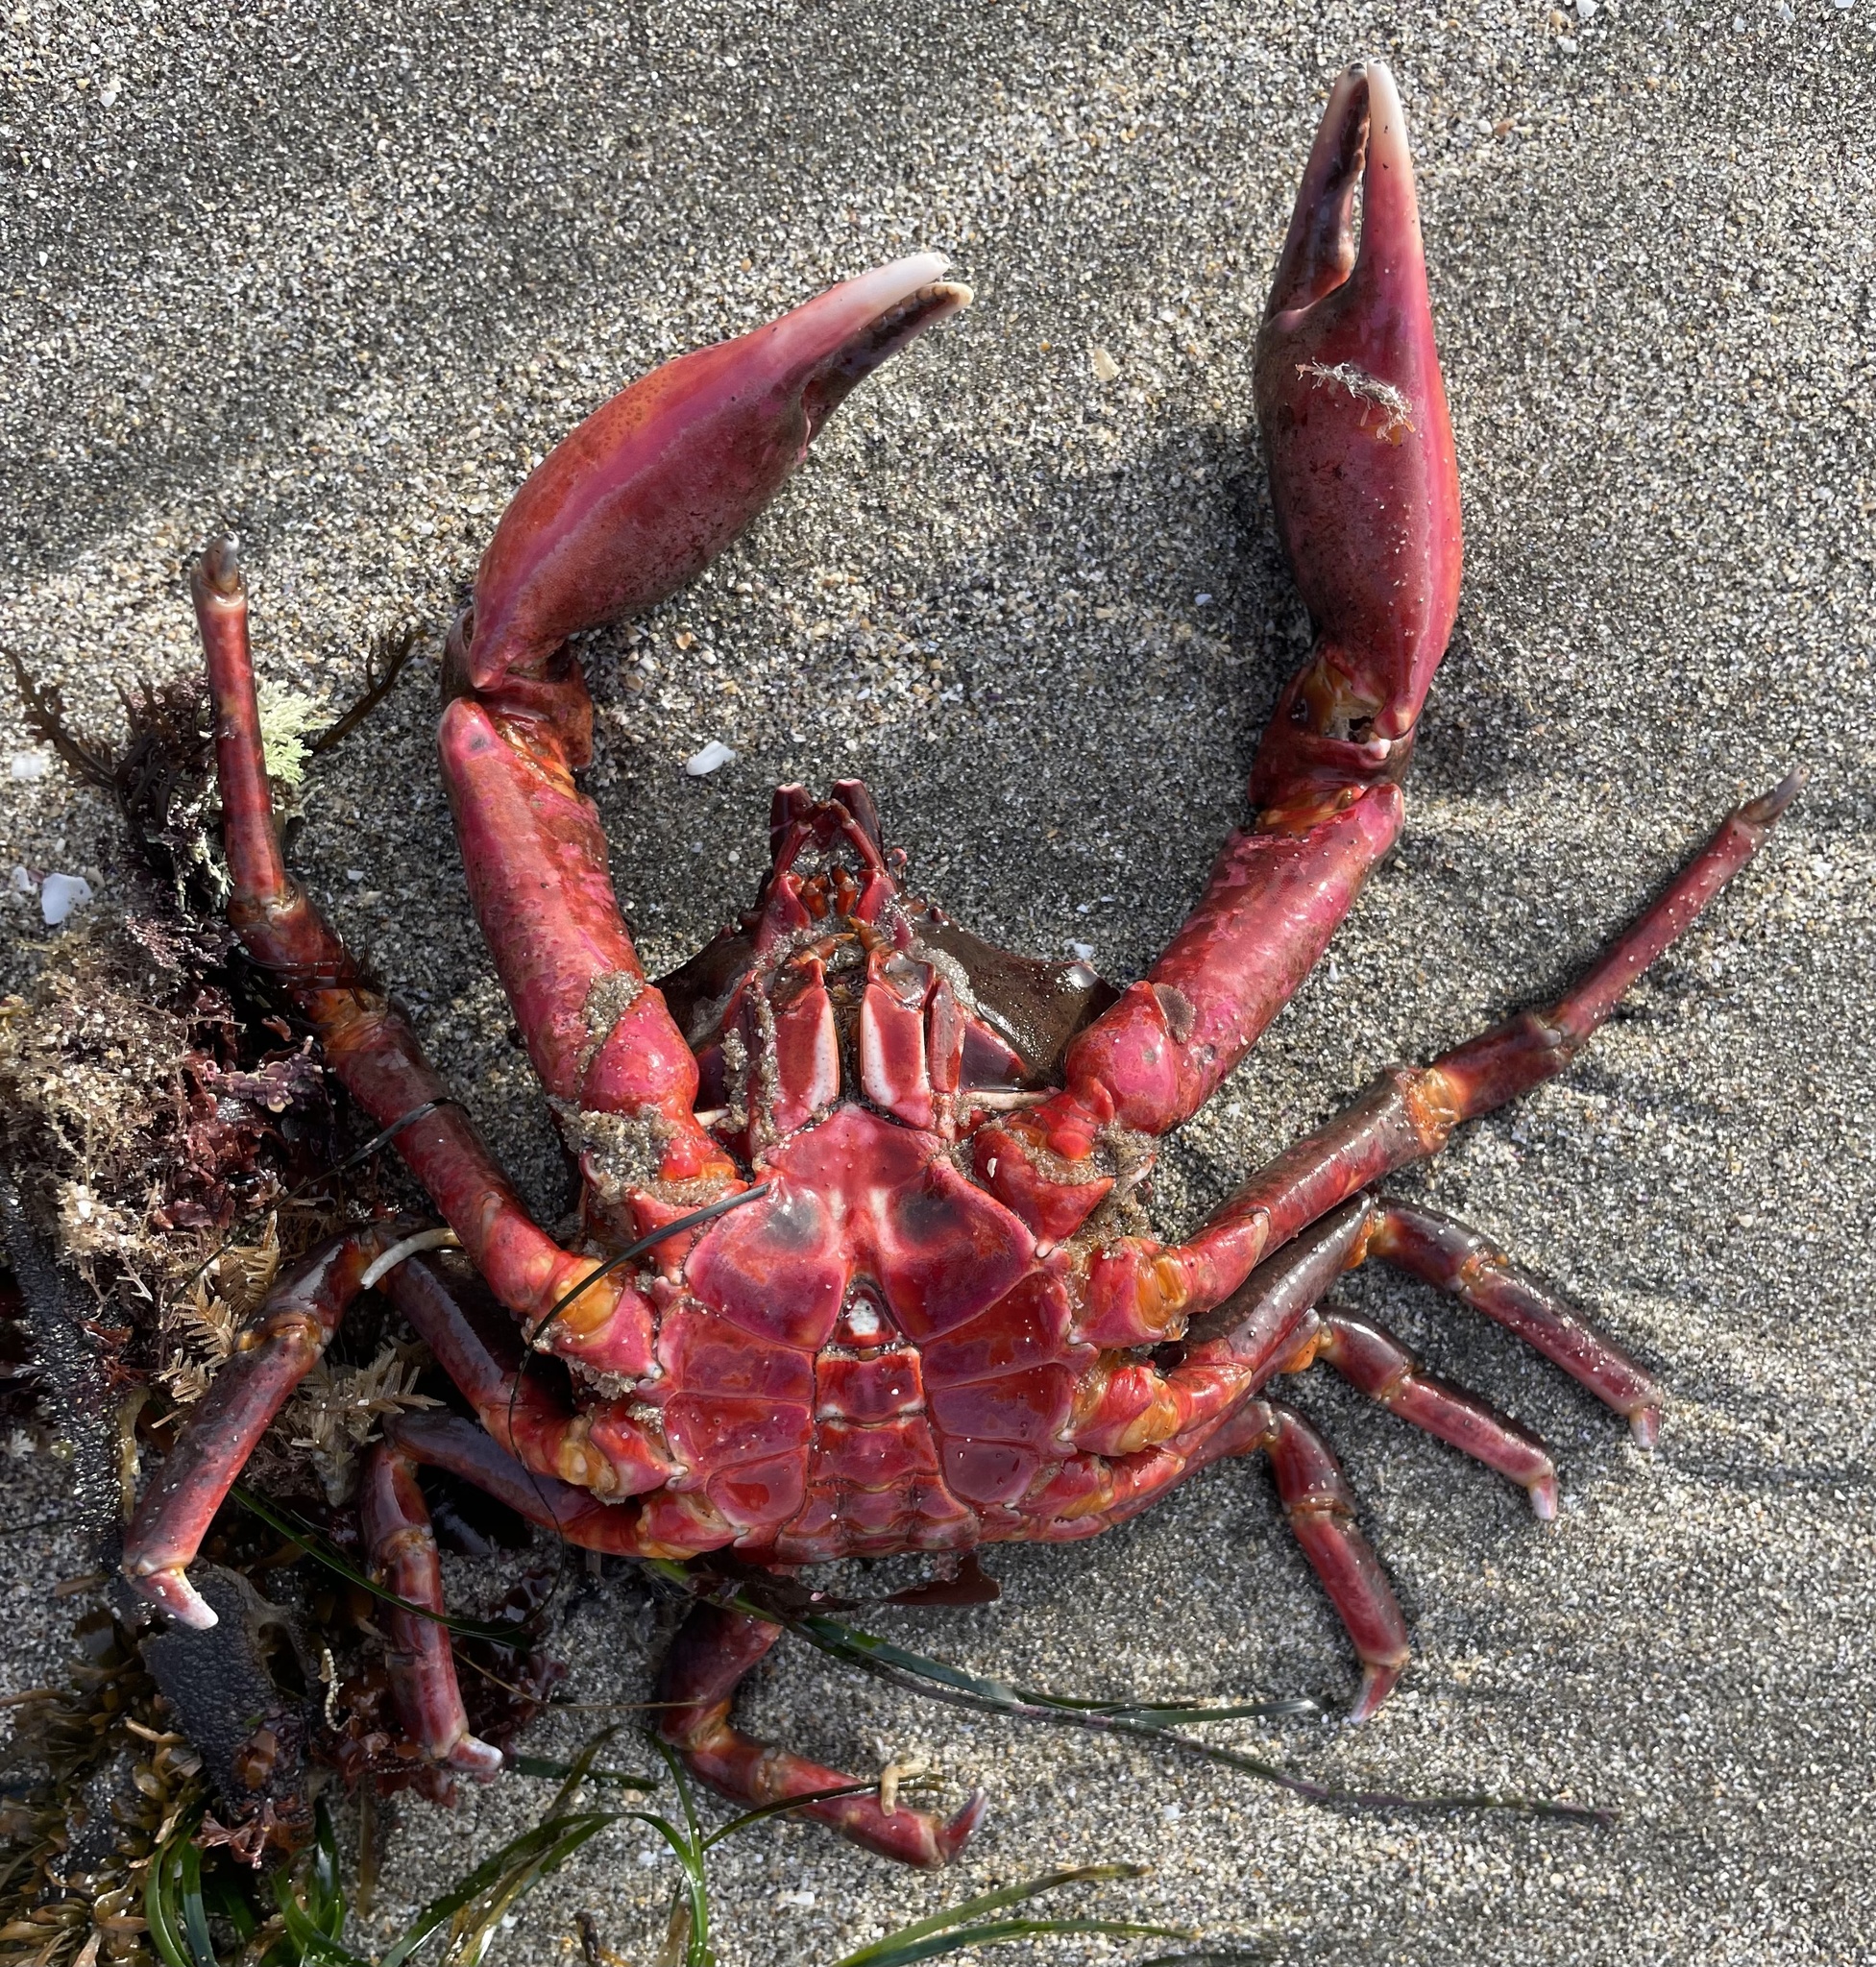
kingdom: Animalia
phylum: Arthropoda
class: Malacostraca
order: Decapoda
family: Epialtidae
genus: Pugettia
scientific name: Pugettia producta
